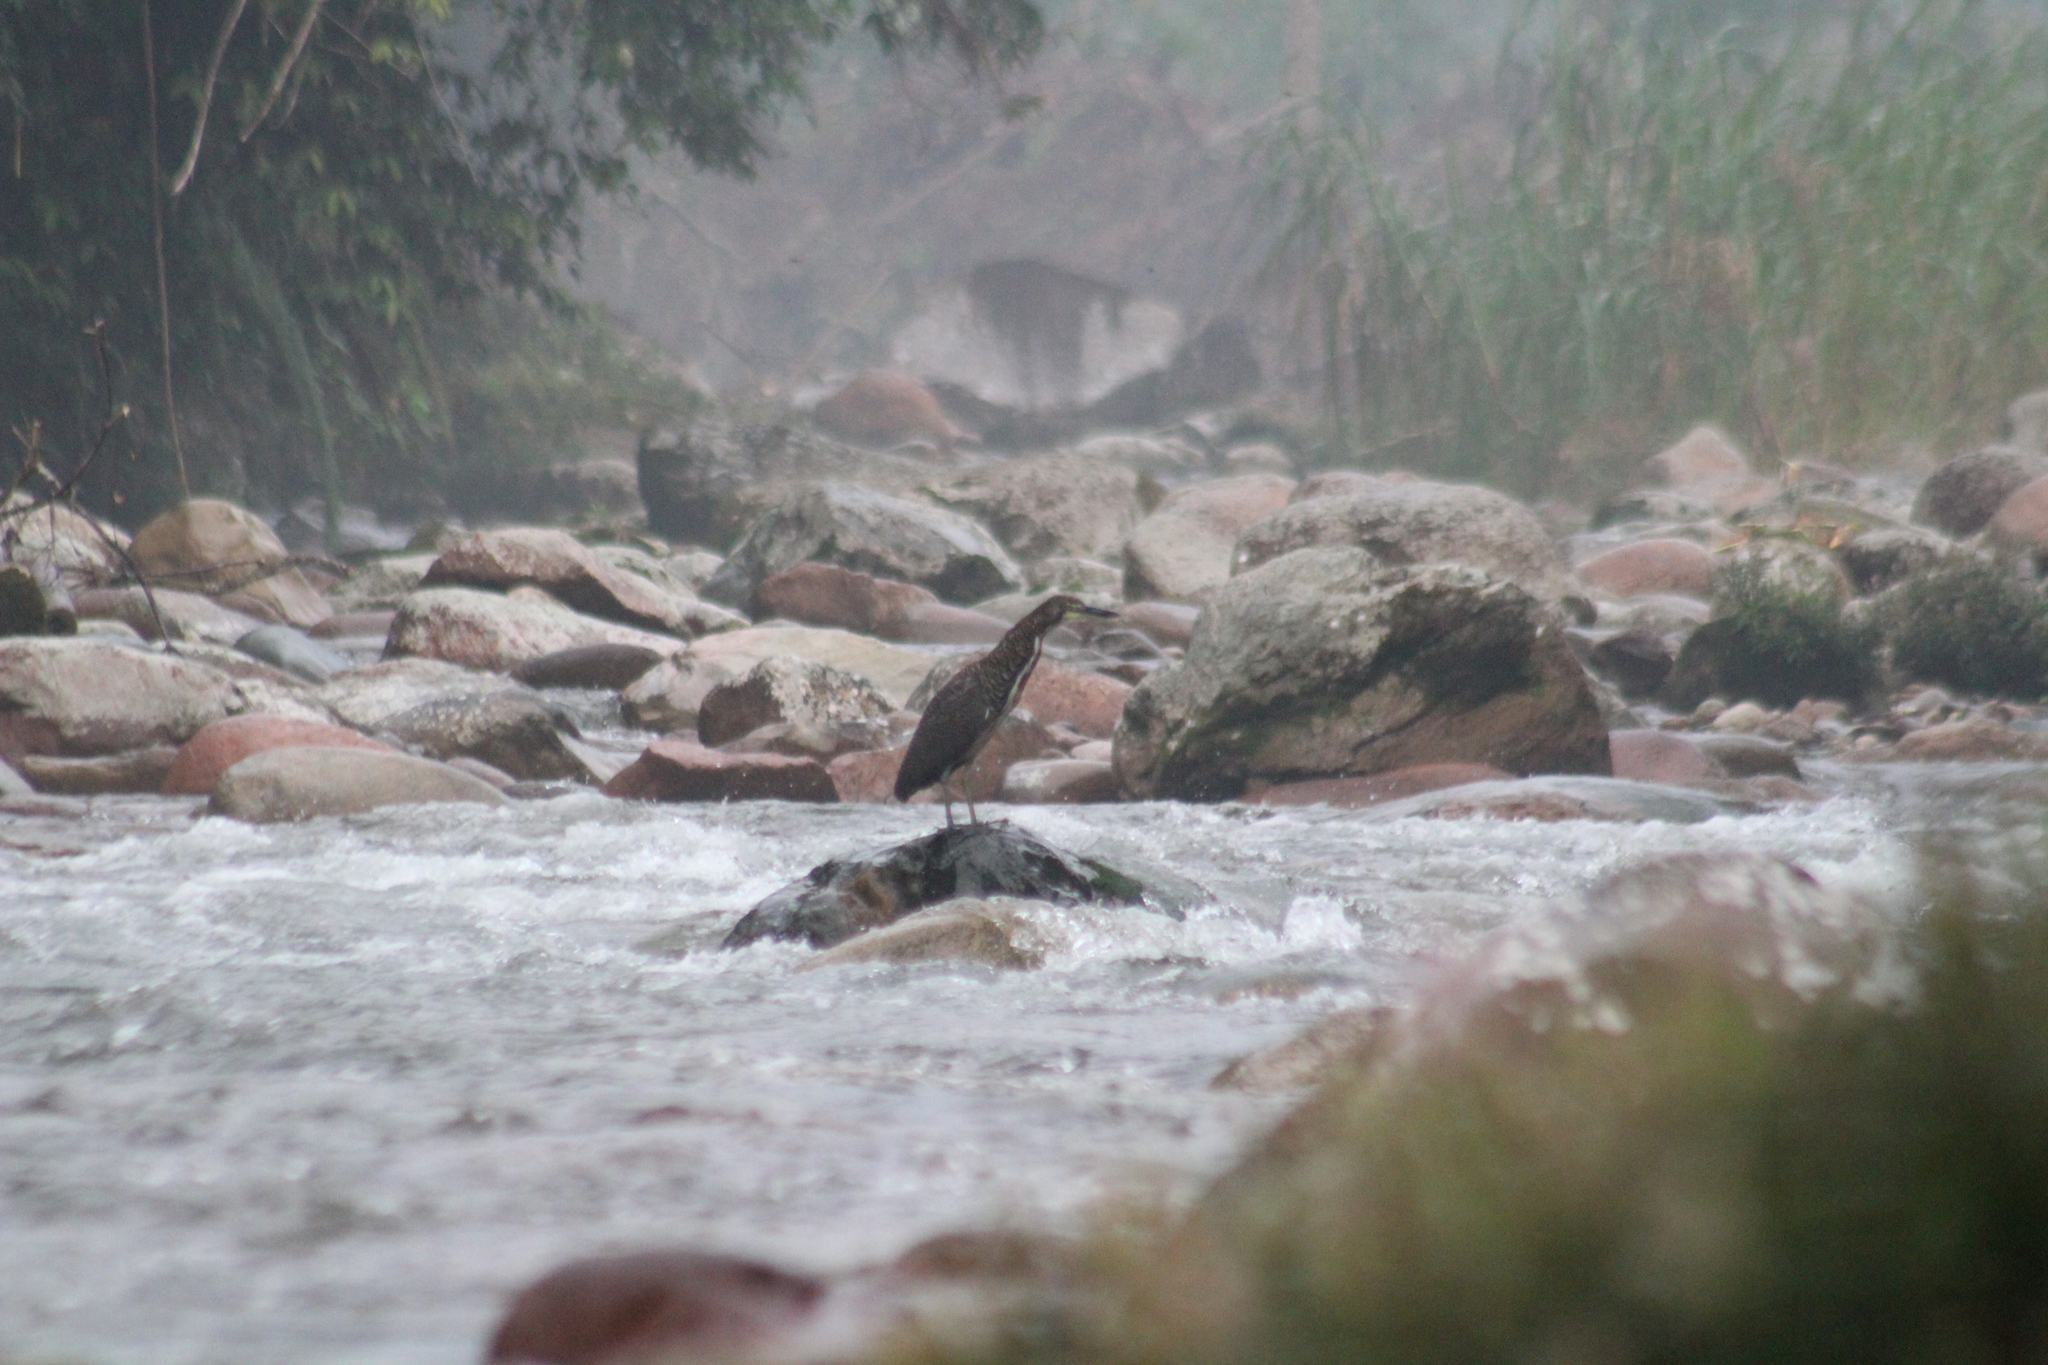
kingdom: Animalia
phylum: Chordata
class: Aves
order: Pelecaniformes
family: Ardeidae
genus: Tigrisoma
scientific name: Tigrisoma fasciatum
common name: Fasciated tiger-heron
